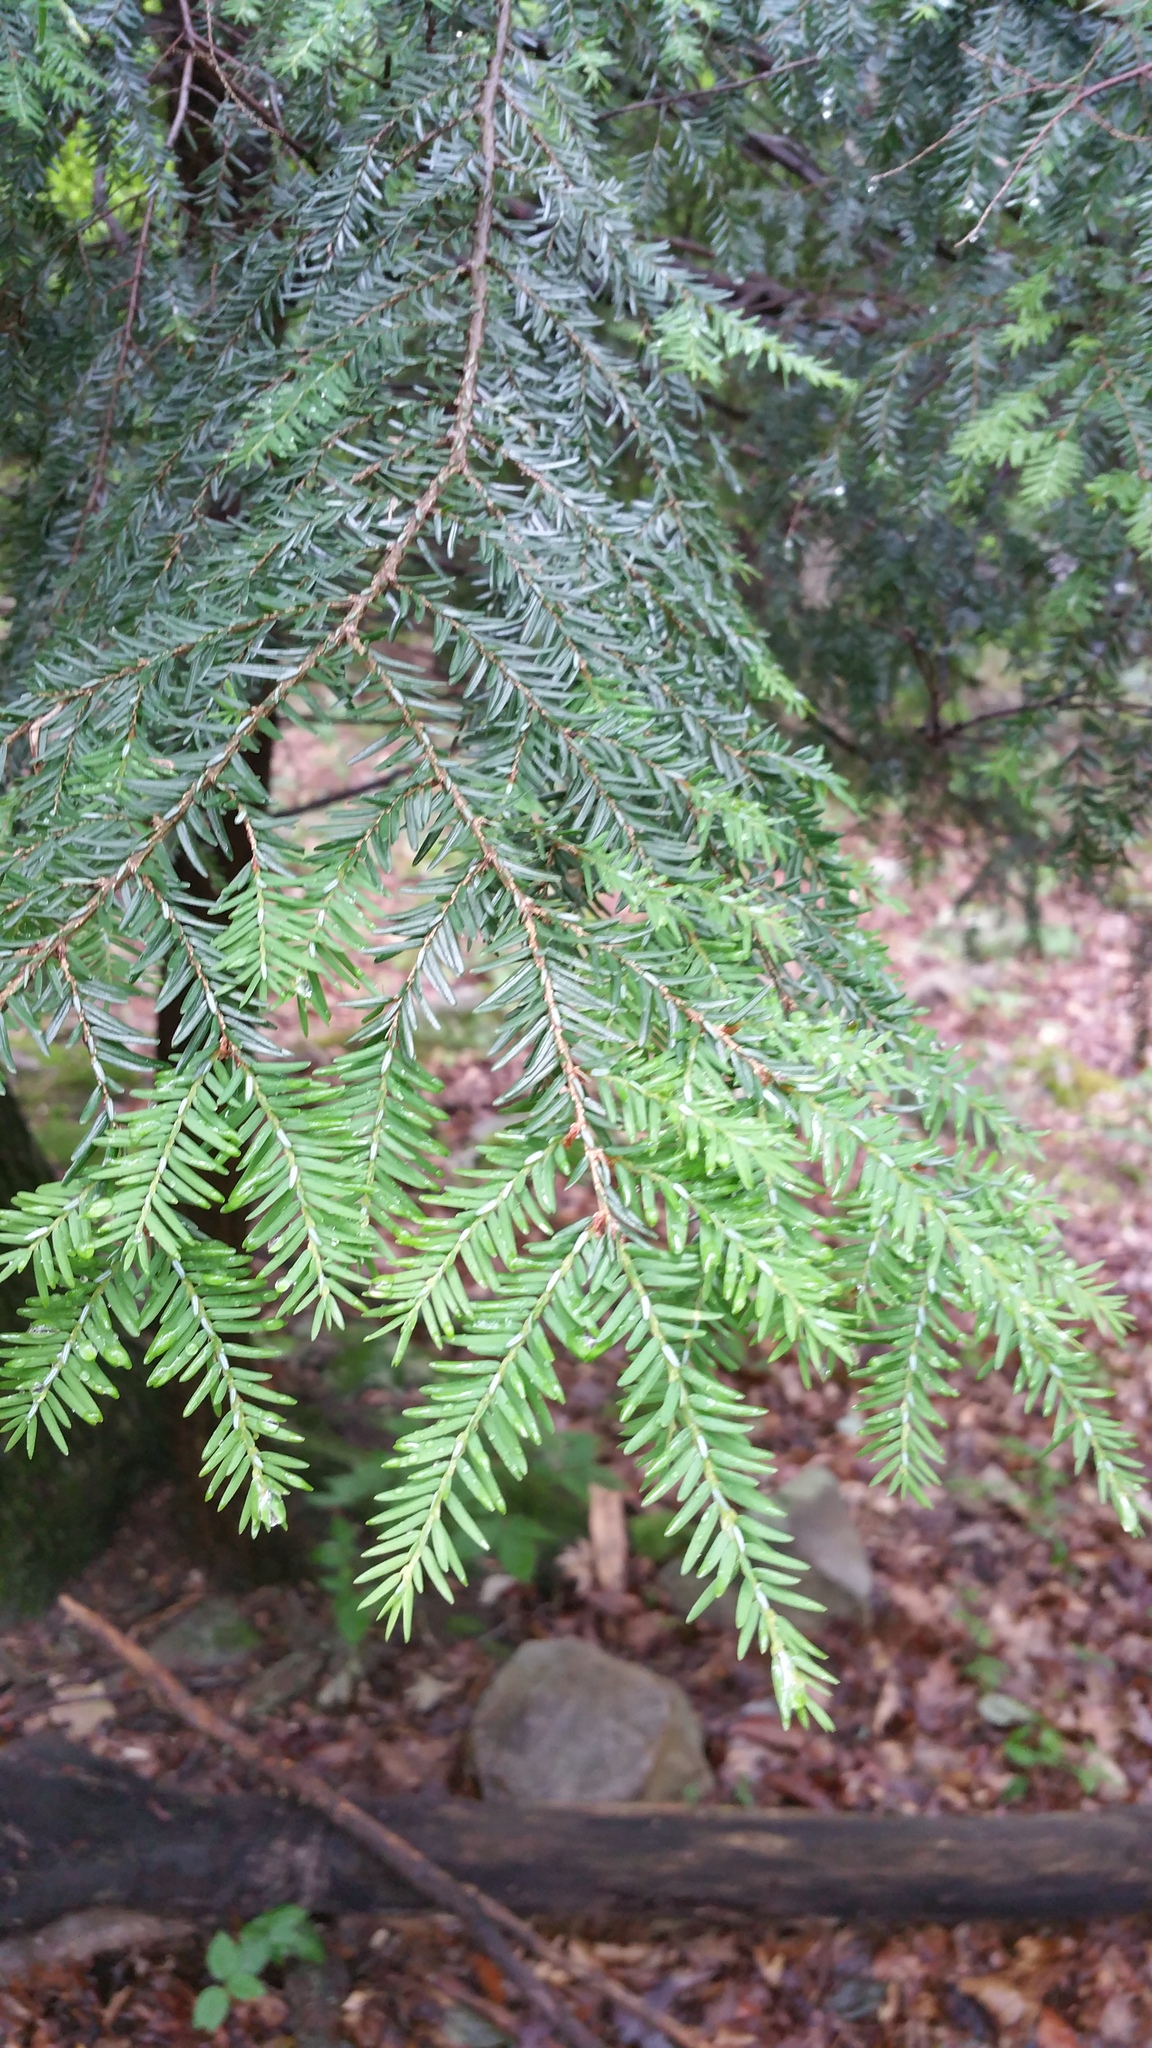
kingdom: Plantae
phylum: Tracheophyta
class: Pinopsida
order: Pinales
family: Pinaceae
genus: Tsuga
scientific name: Tsuga canadensis
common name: Eastern hemlock
